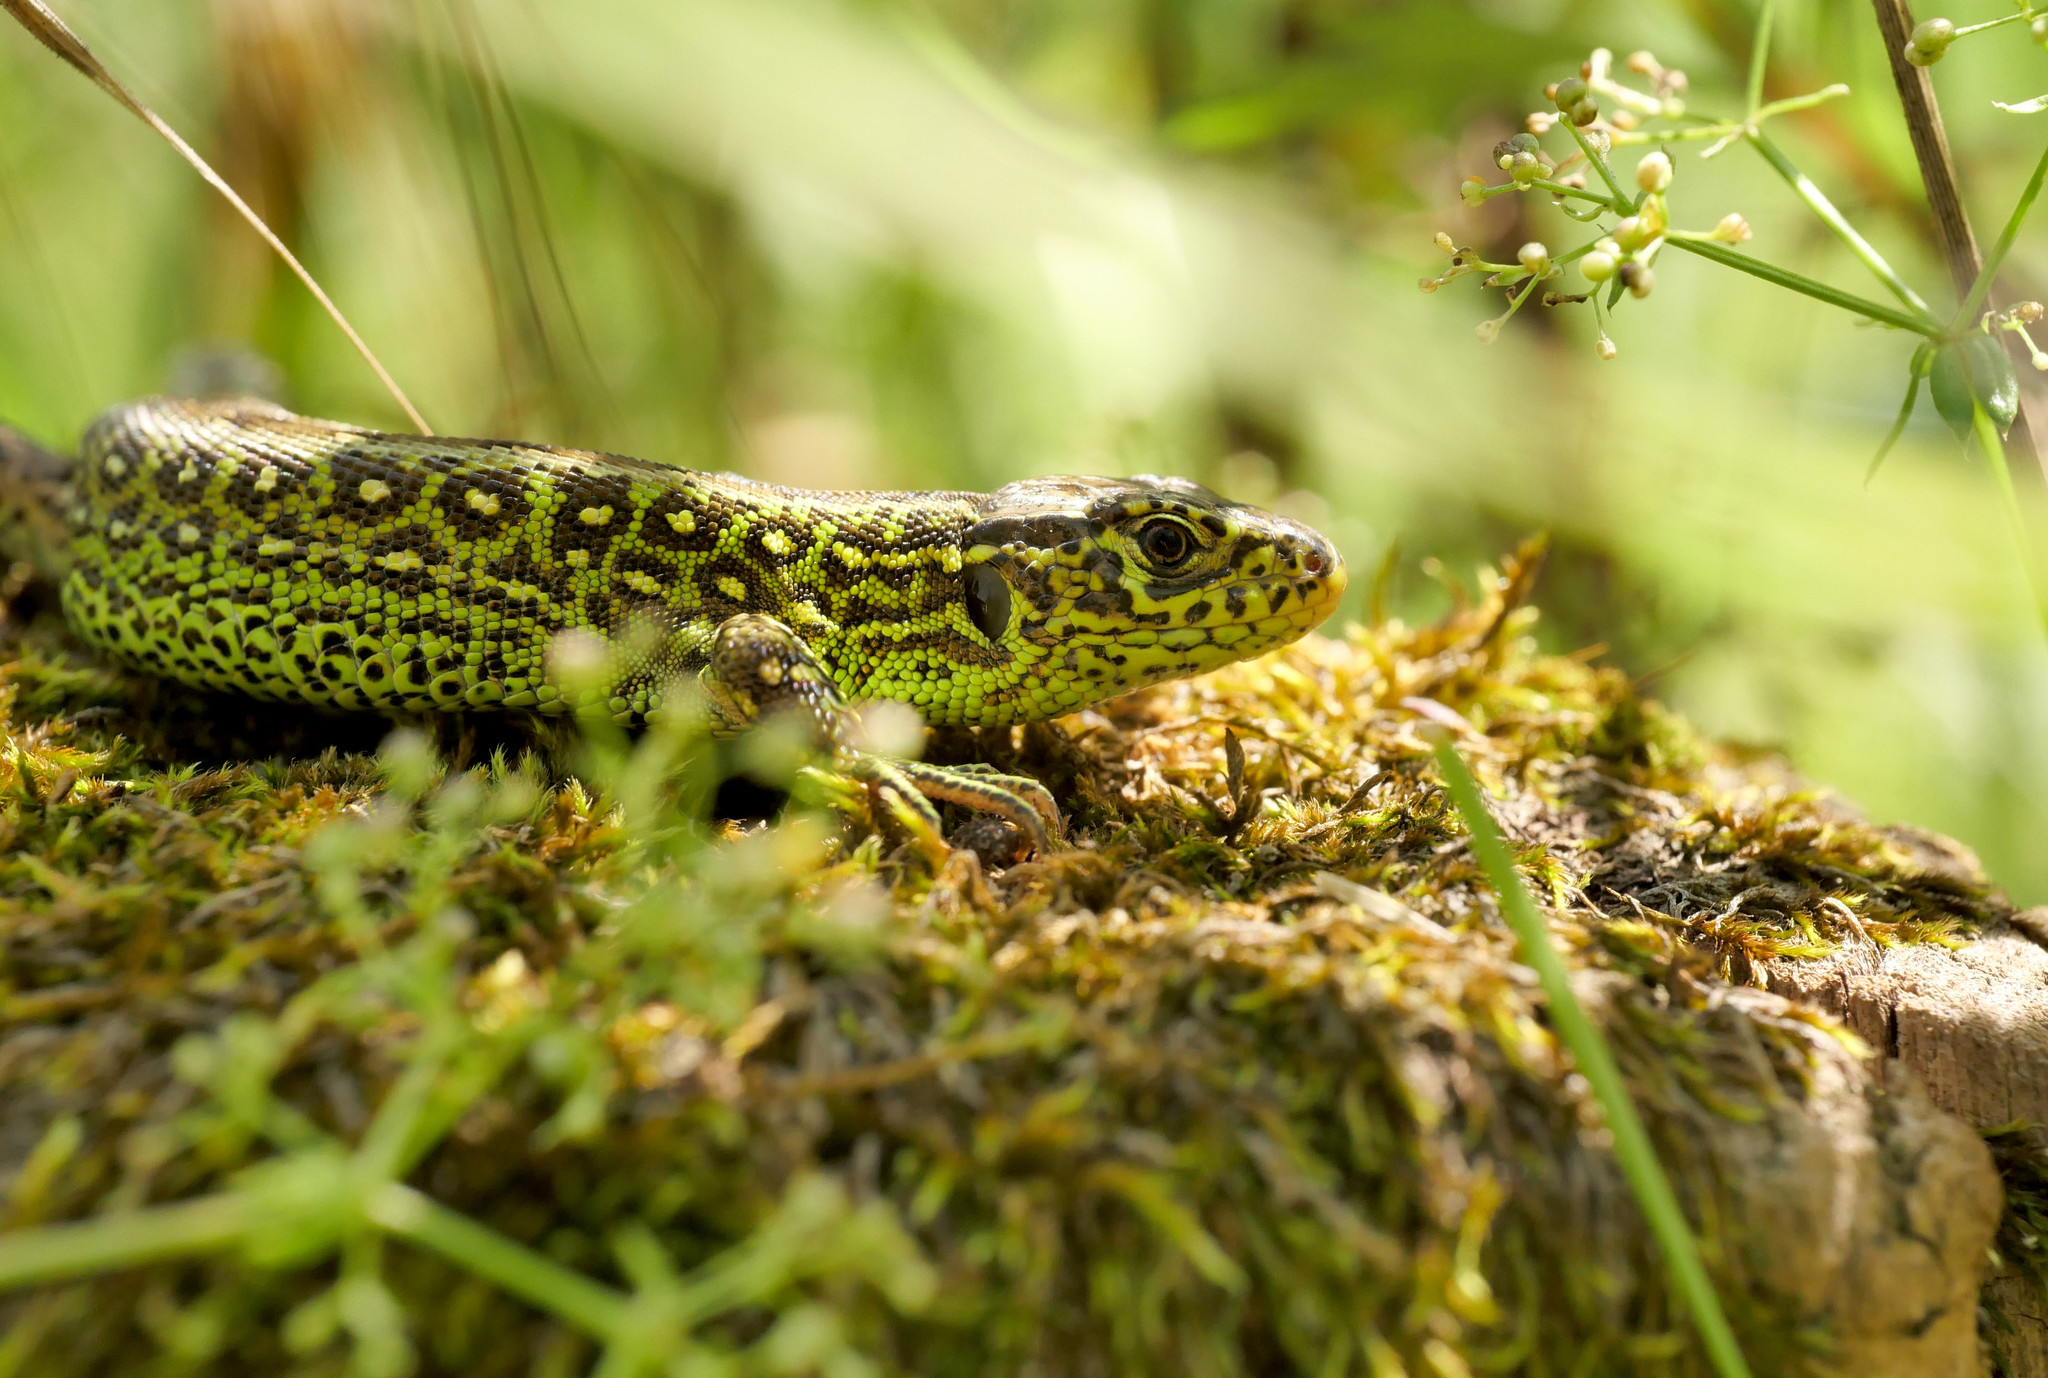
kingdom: Animalia
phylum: Chordata
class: Squamata
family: Lacertidae
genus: Lacerta
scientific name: Lacerta agilis
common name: Sand lizard
